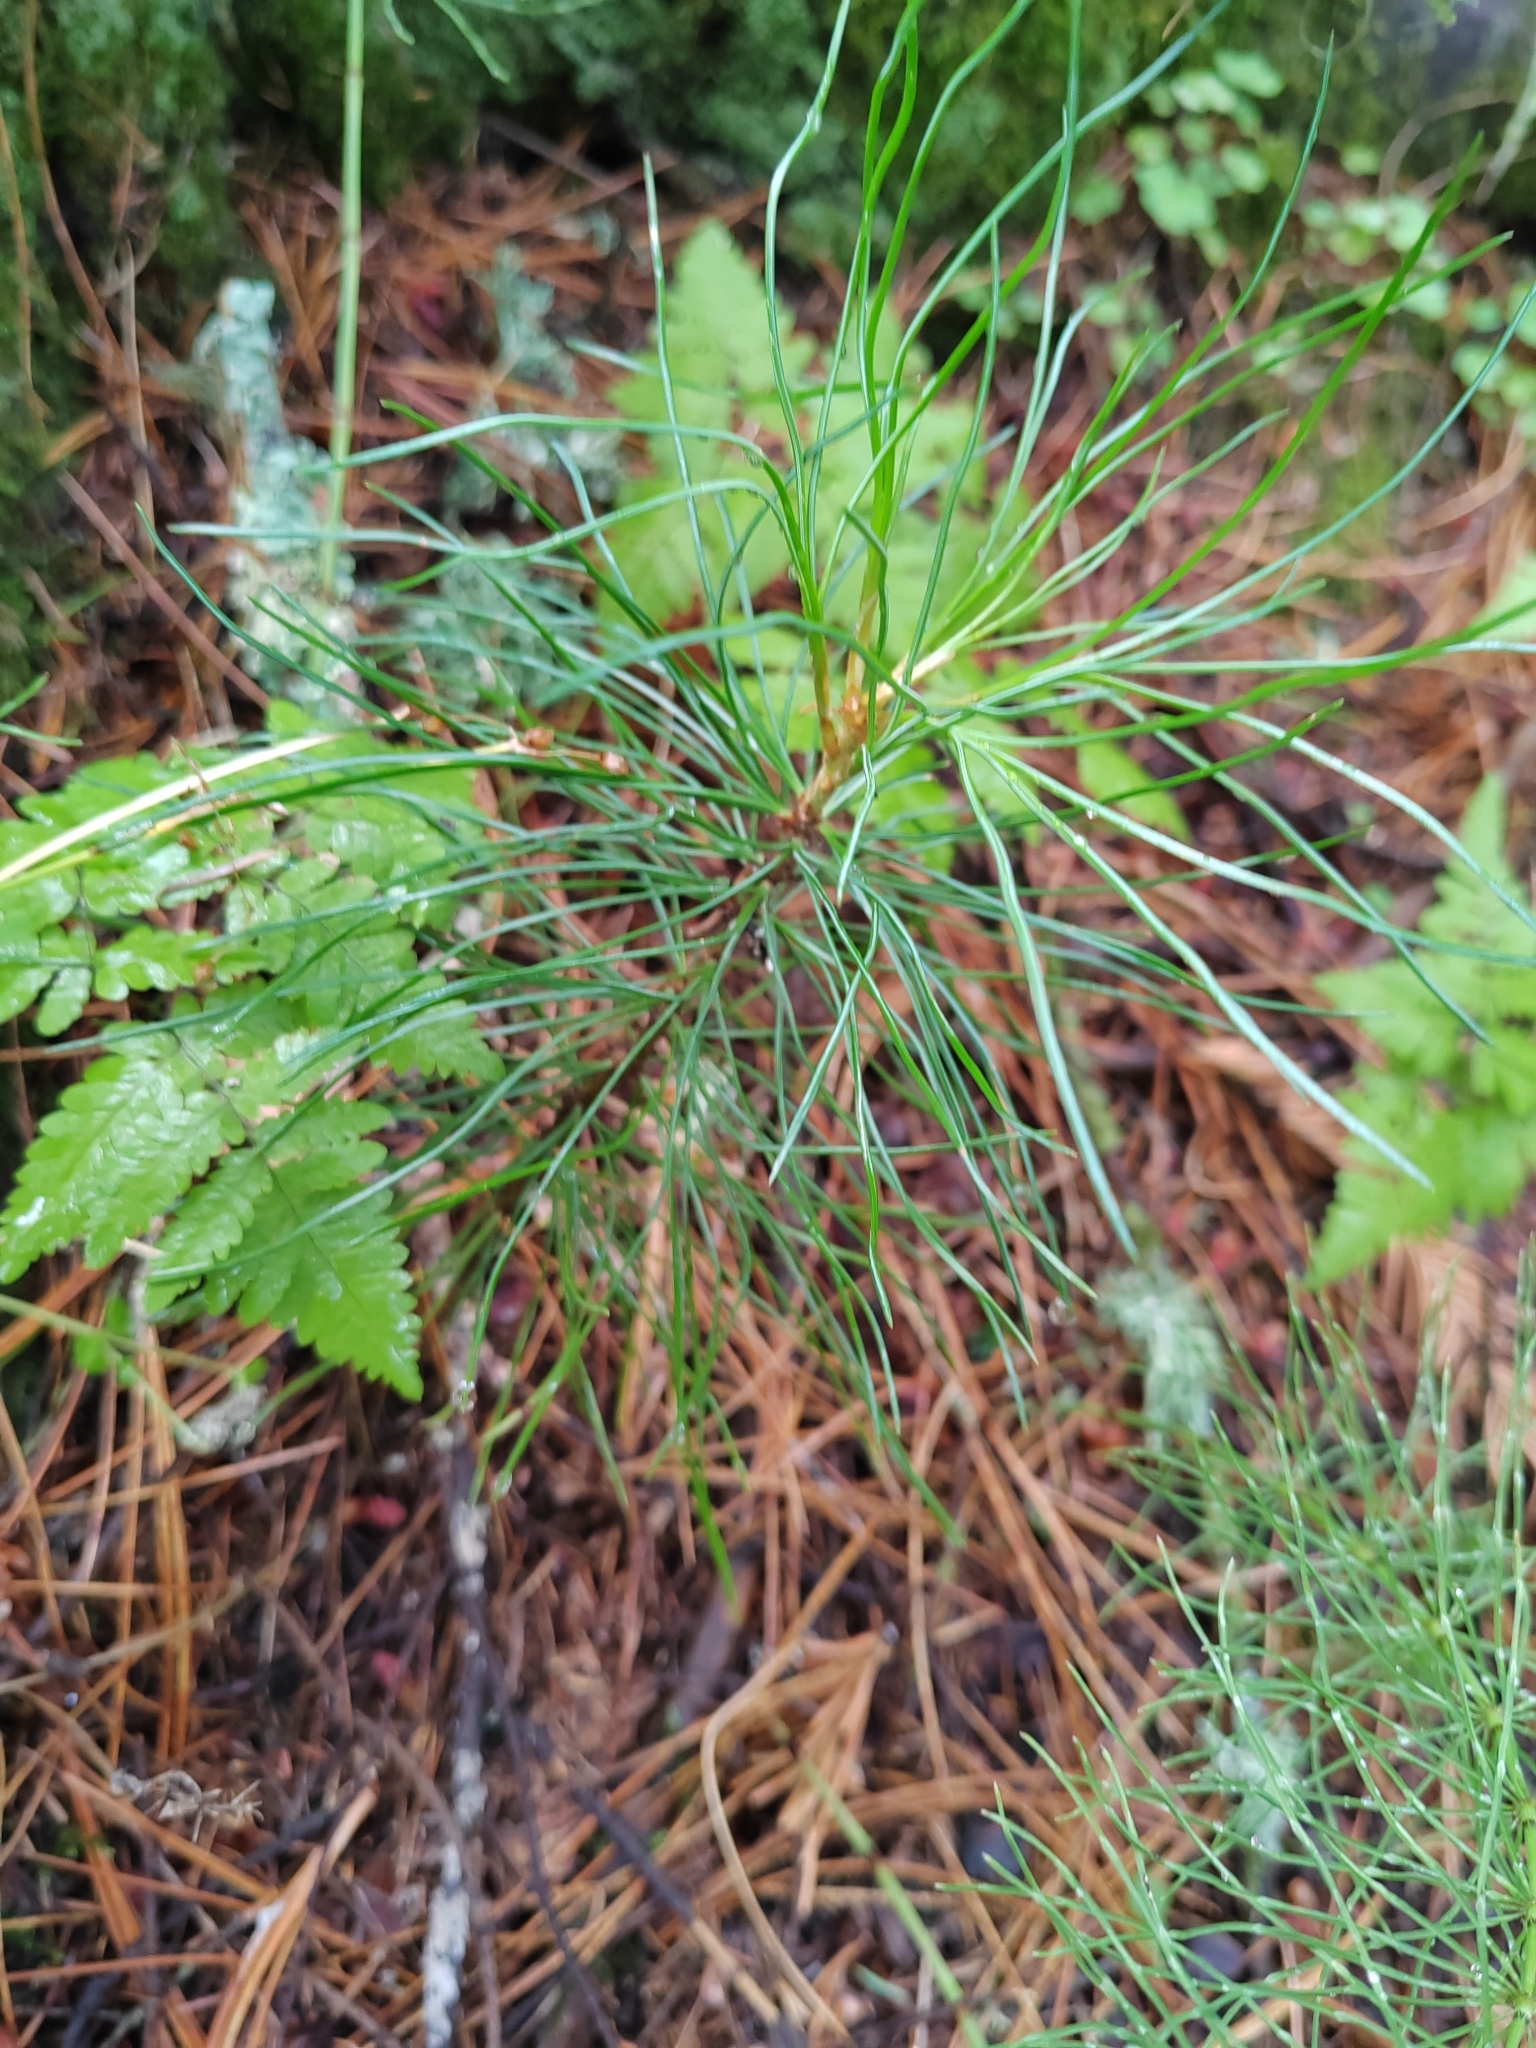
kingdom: Plantae
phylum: Tracheophyta
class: Pinopsida
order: Pinales
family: Pinaceae
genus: Pinus
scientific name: Pinus sibirica
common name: Siberian pine
